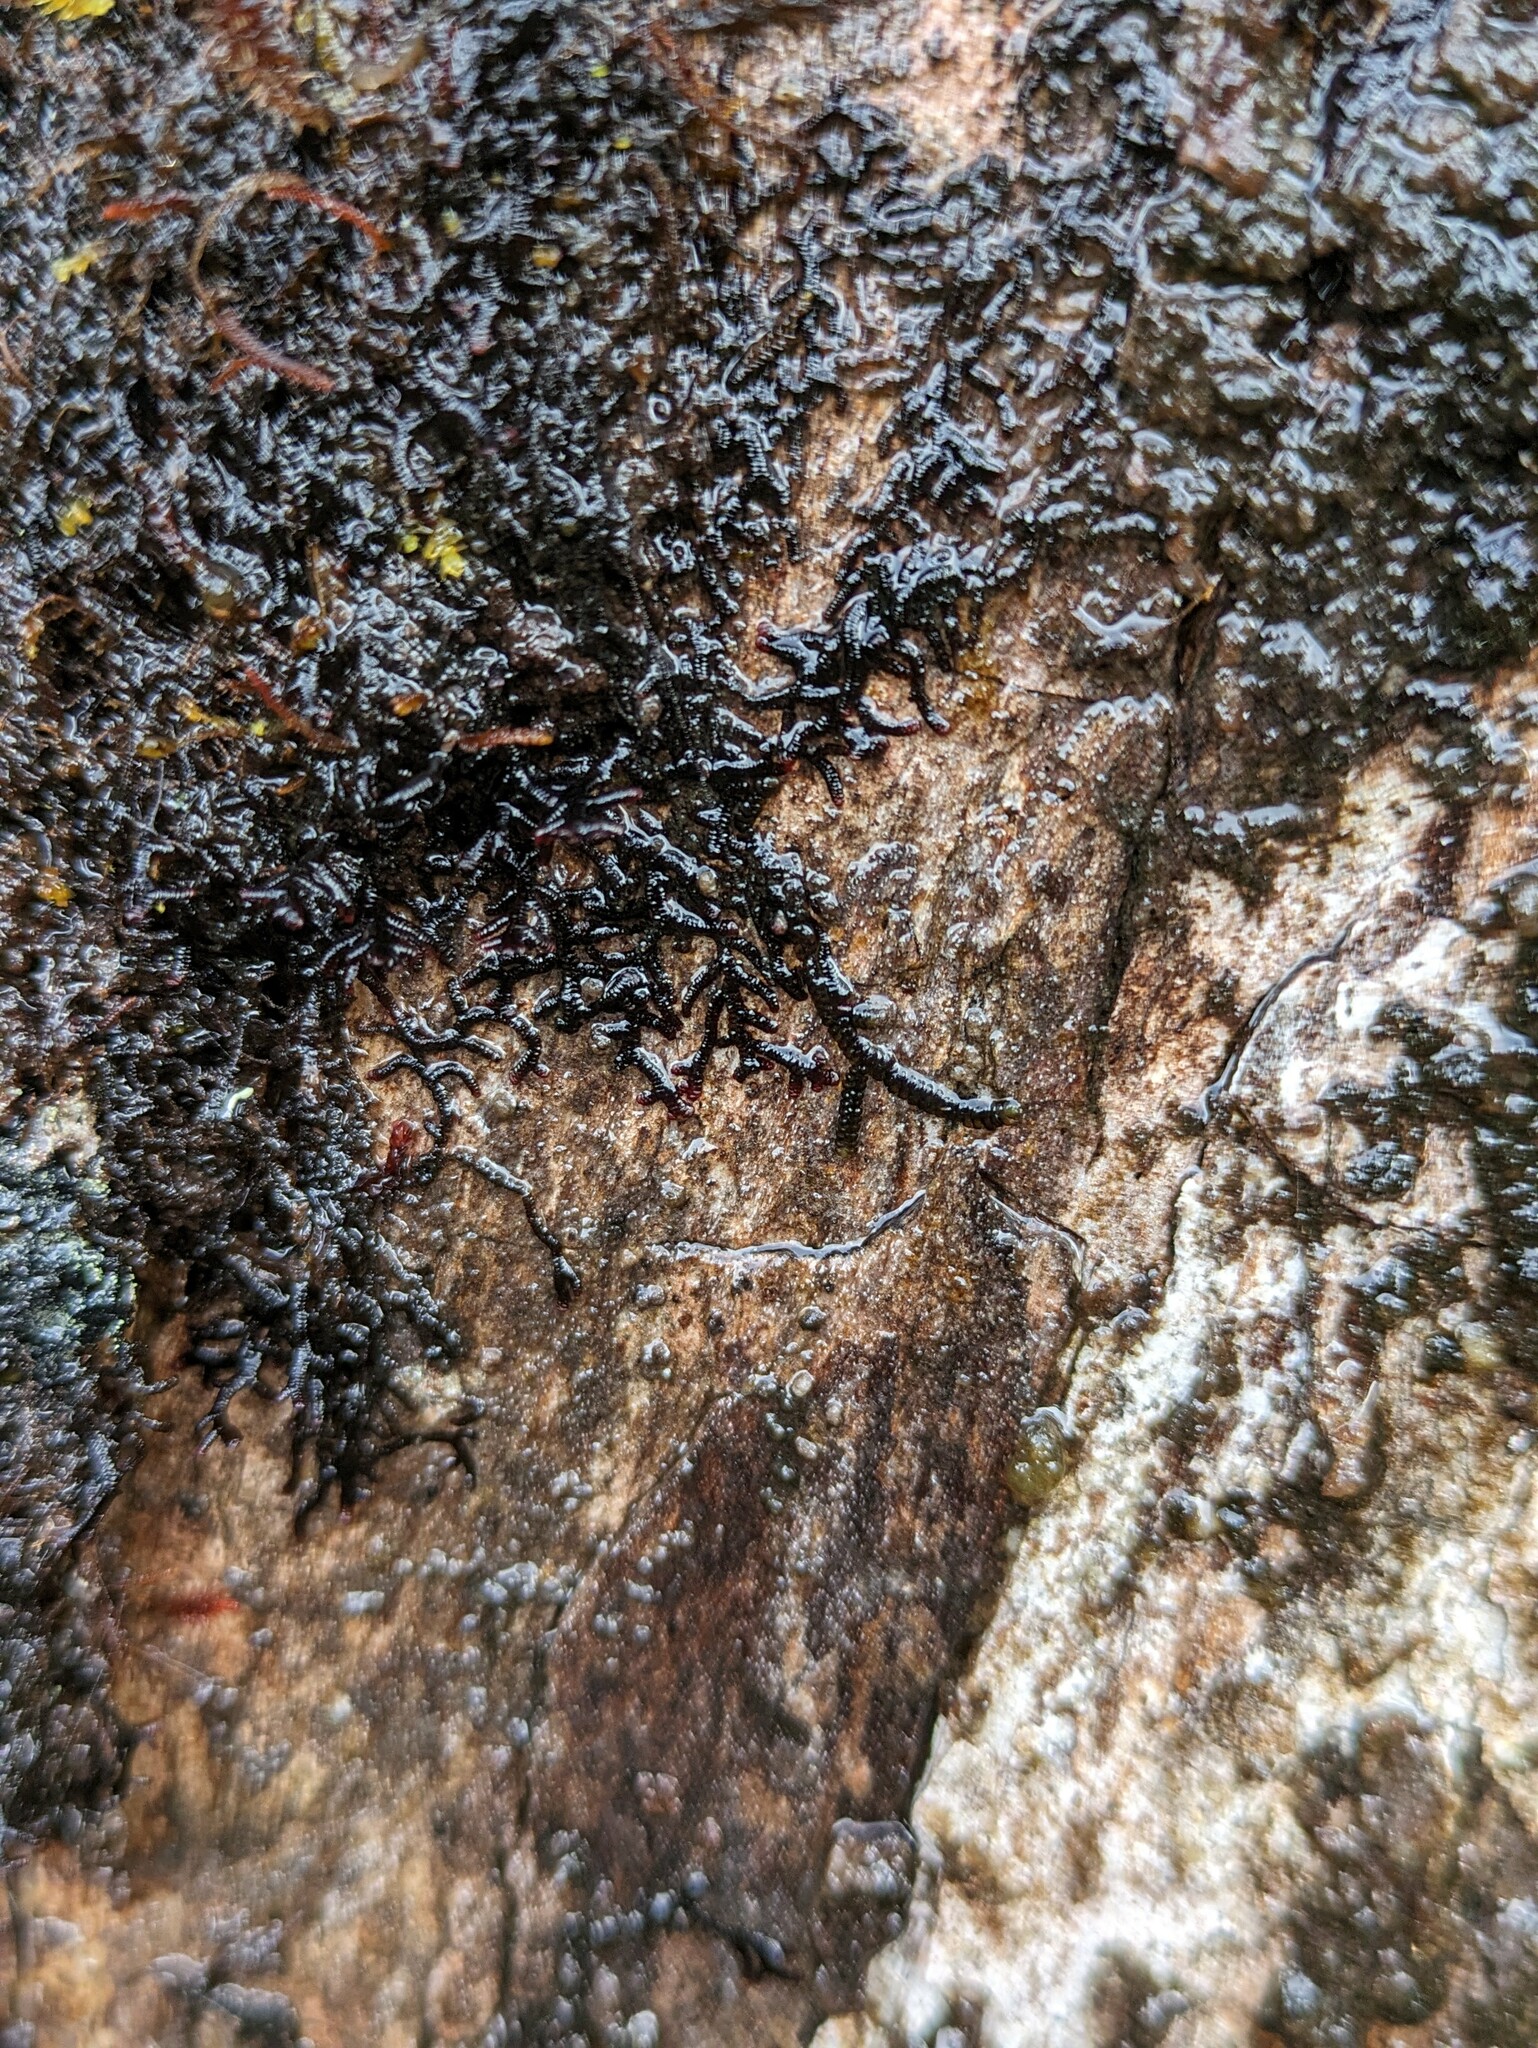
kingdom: Plantae
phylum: Marchantiophyta
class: Jungermanniopsida
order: Porellales
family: Frullaniaceae
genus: Frullania
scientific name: Frullania apiculata
